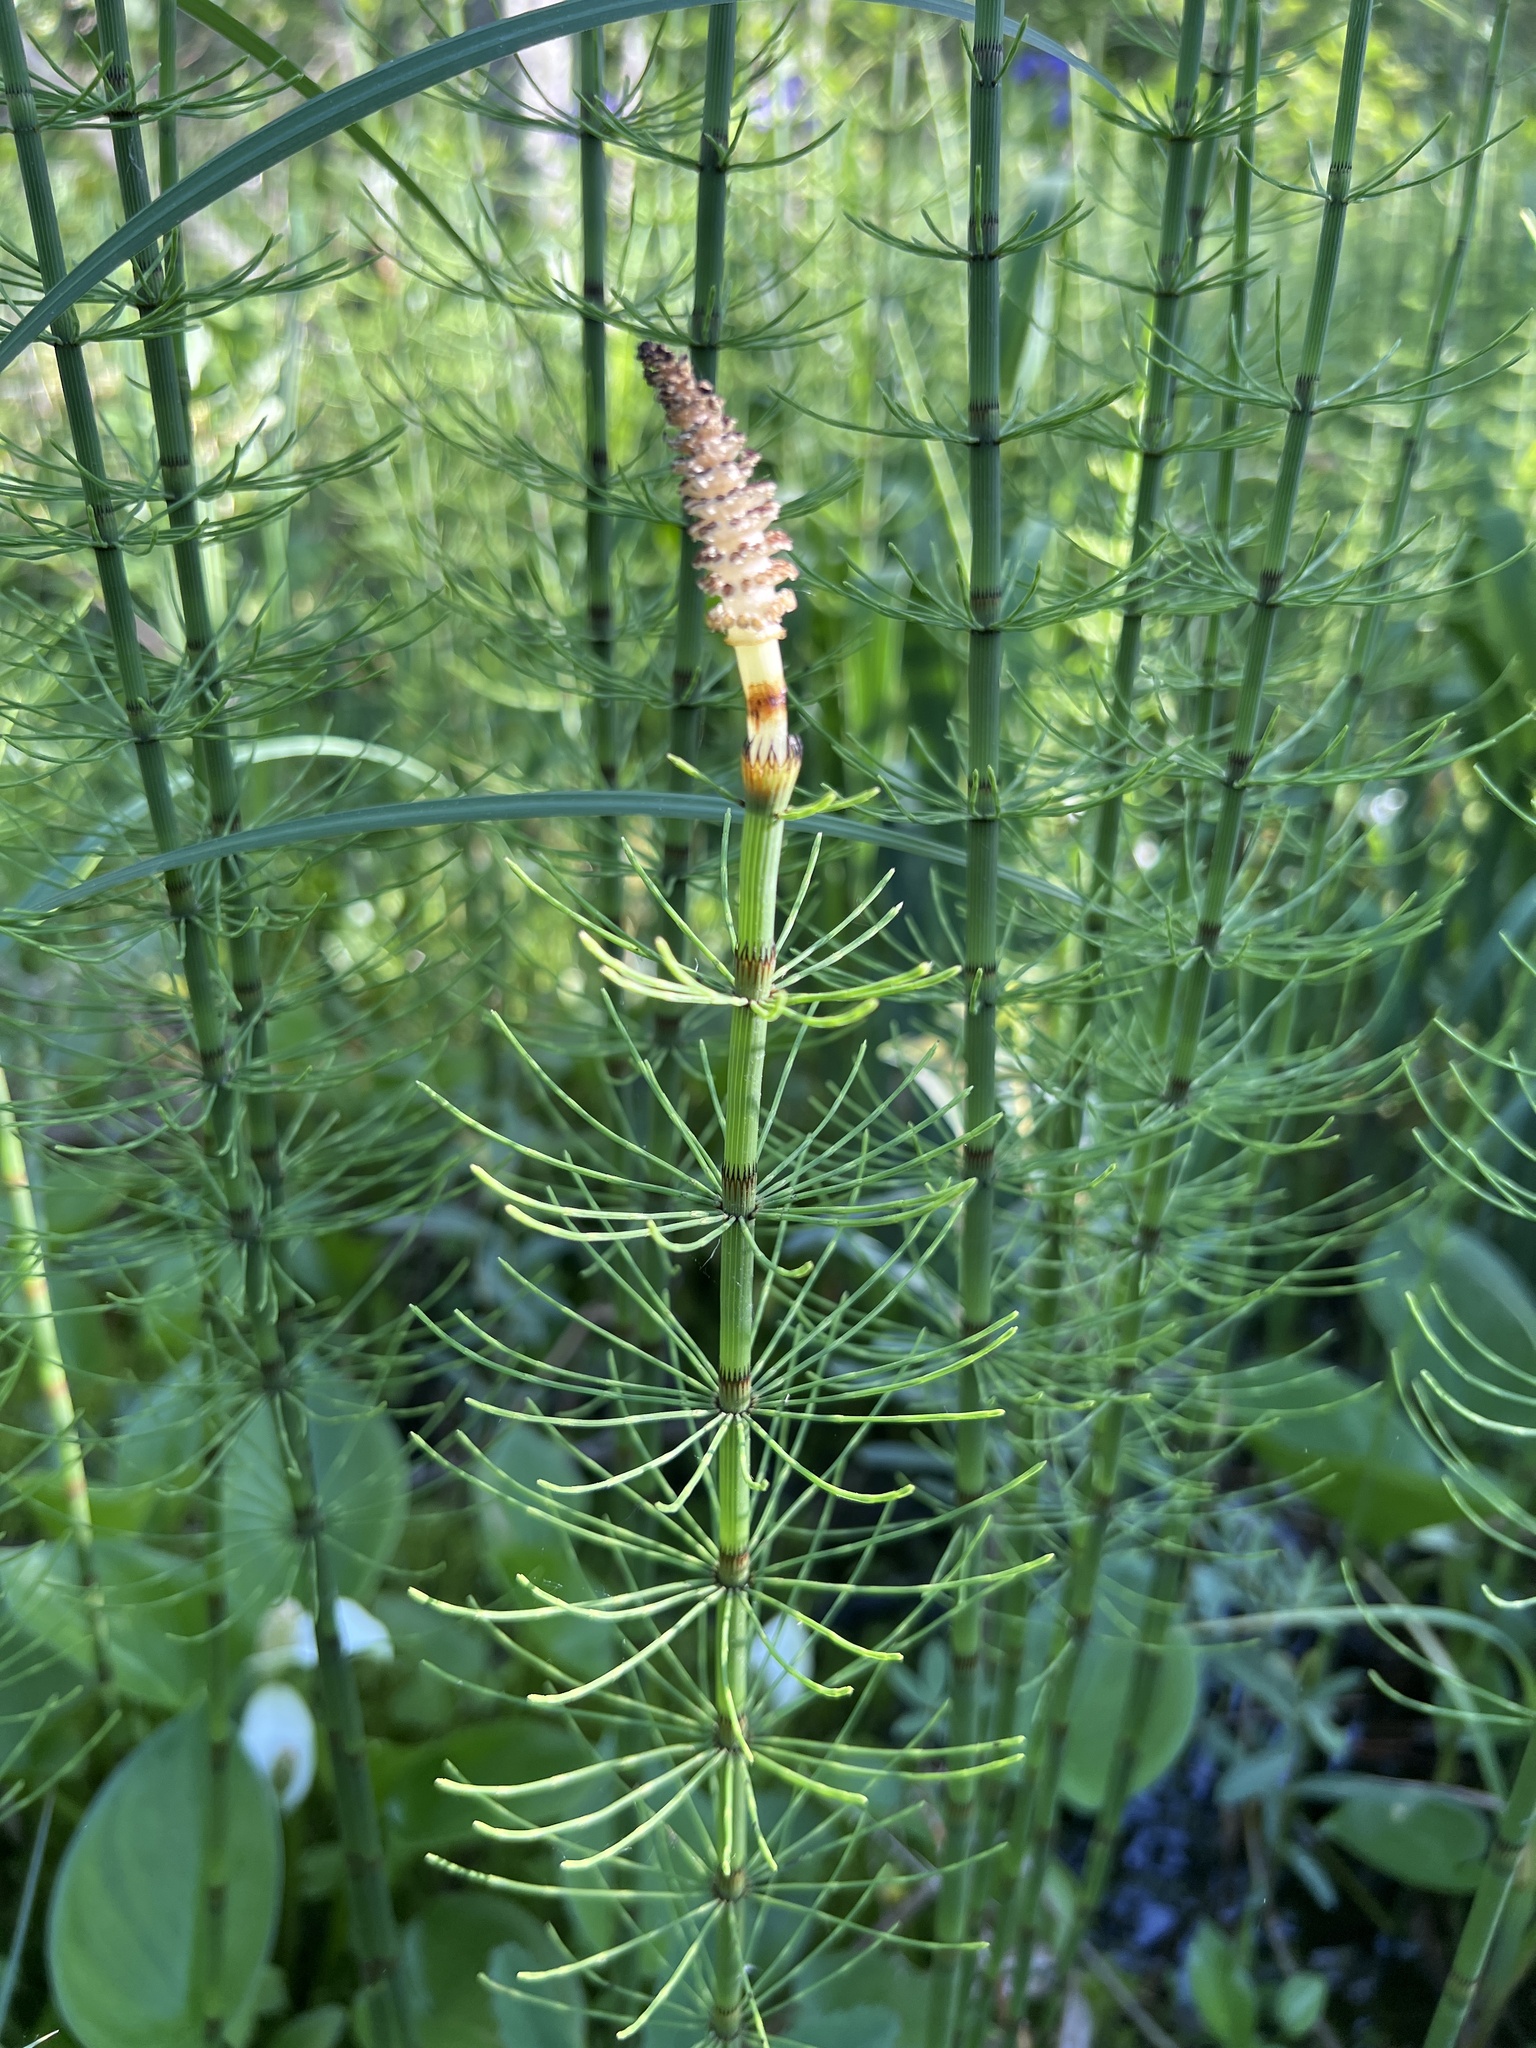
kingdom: Plantae
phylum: Tracheophyta
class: Polypodiopsida
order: Equisetales
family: Equisetaceae
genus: Equisetum
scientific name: Equisetum fluviatile
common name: Water horsetail
